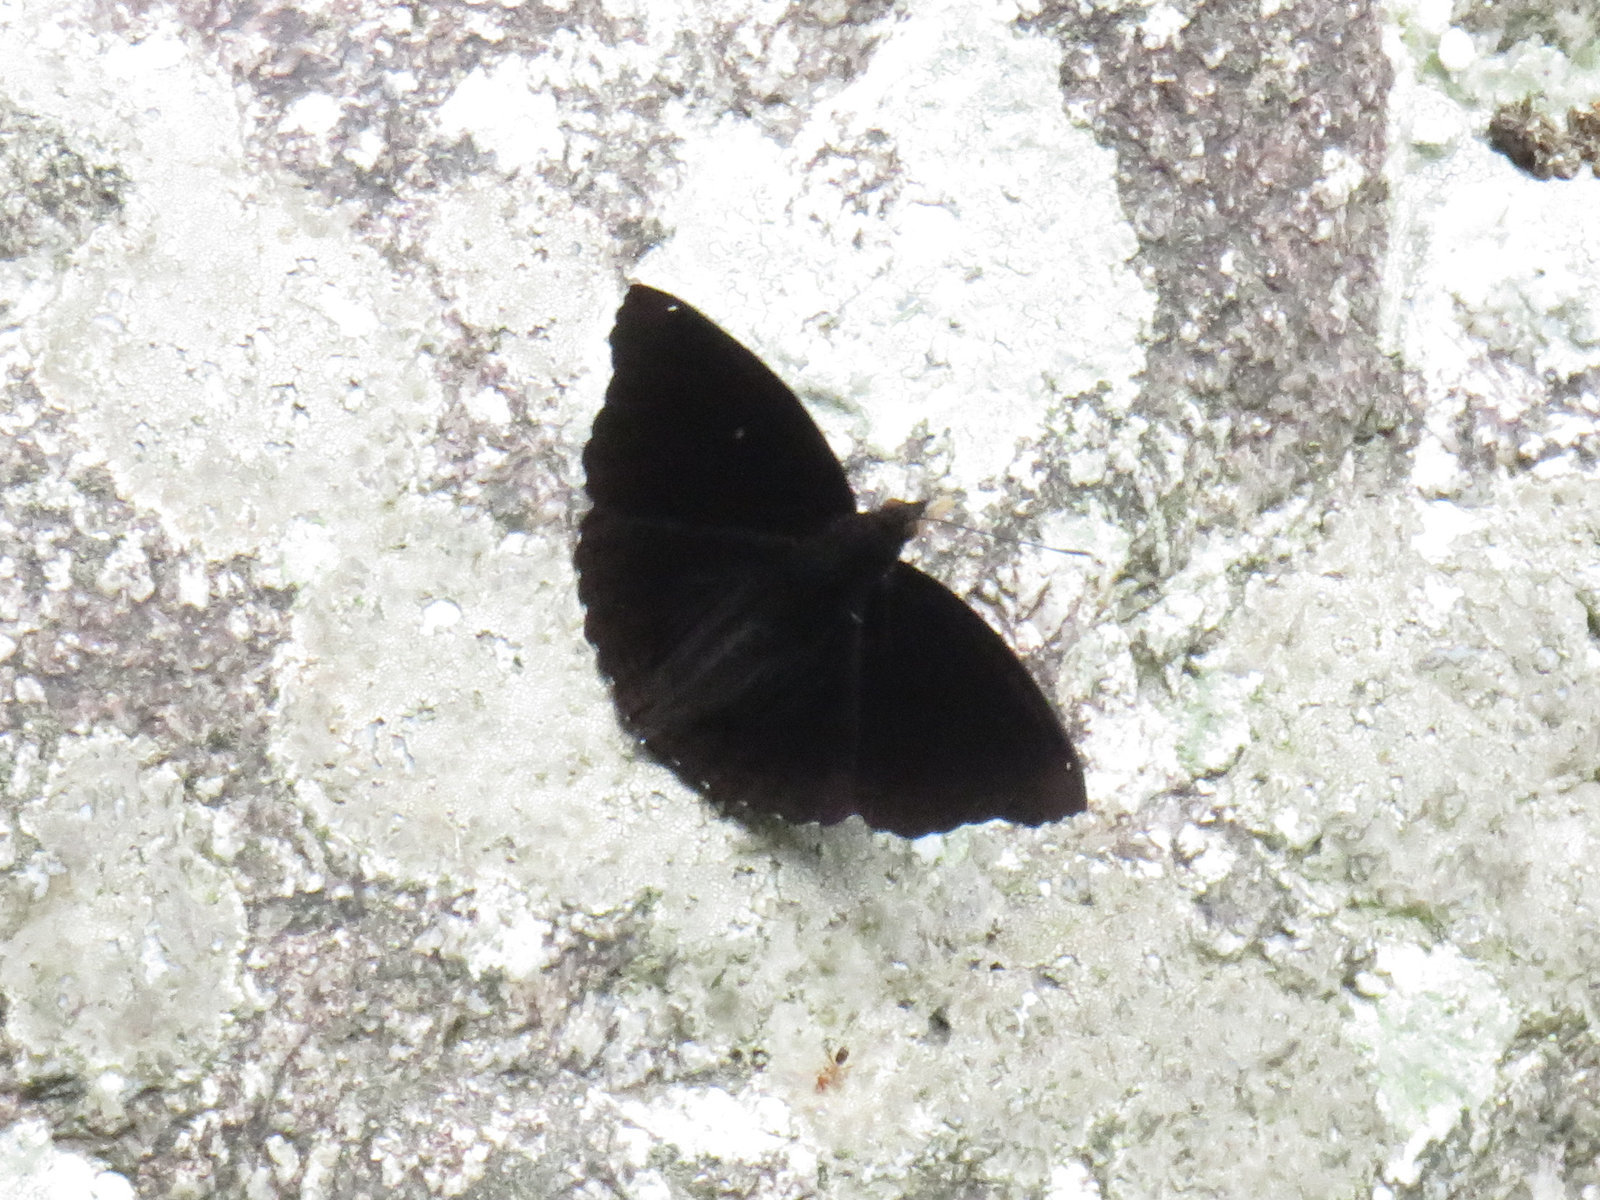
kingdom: Animalia
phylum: Arthropoda
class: Insecta
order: Lepidoptera
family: Nymphalidae
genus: Apatura
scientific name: Apatura Rohana spec
